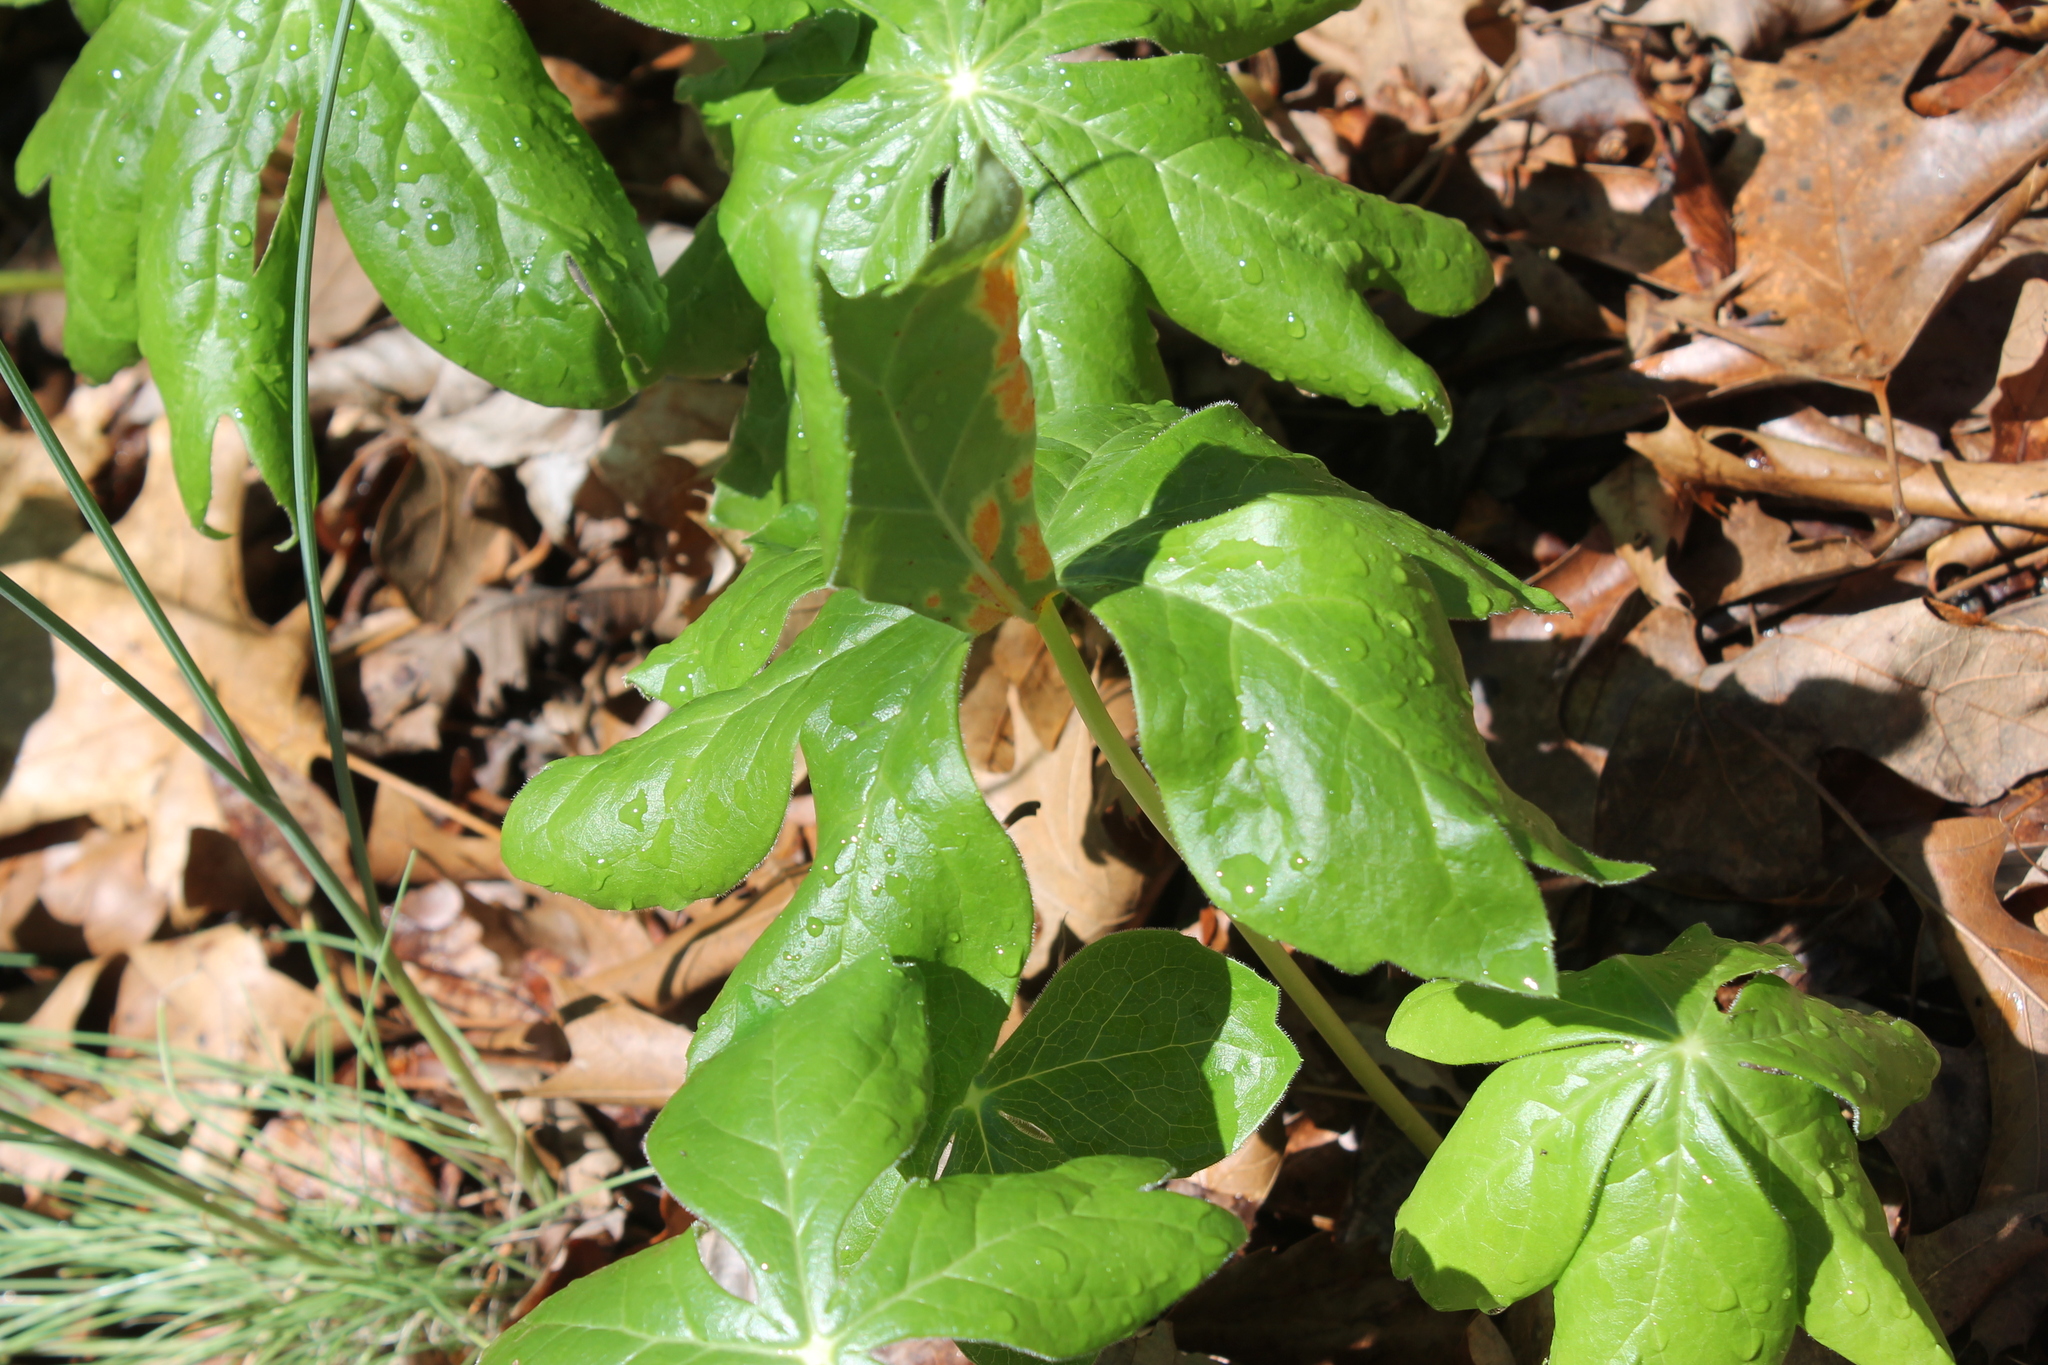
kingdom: Fungi
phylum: Basidiomycota
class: Pucciniomycetes
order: Pucciniales
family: Pucciniaceae
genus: Puccinia
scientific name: Puccinia podophylli
